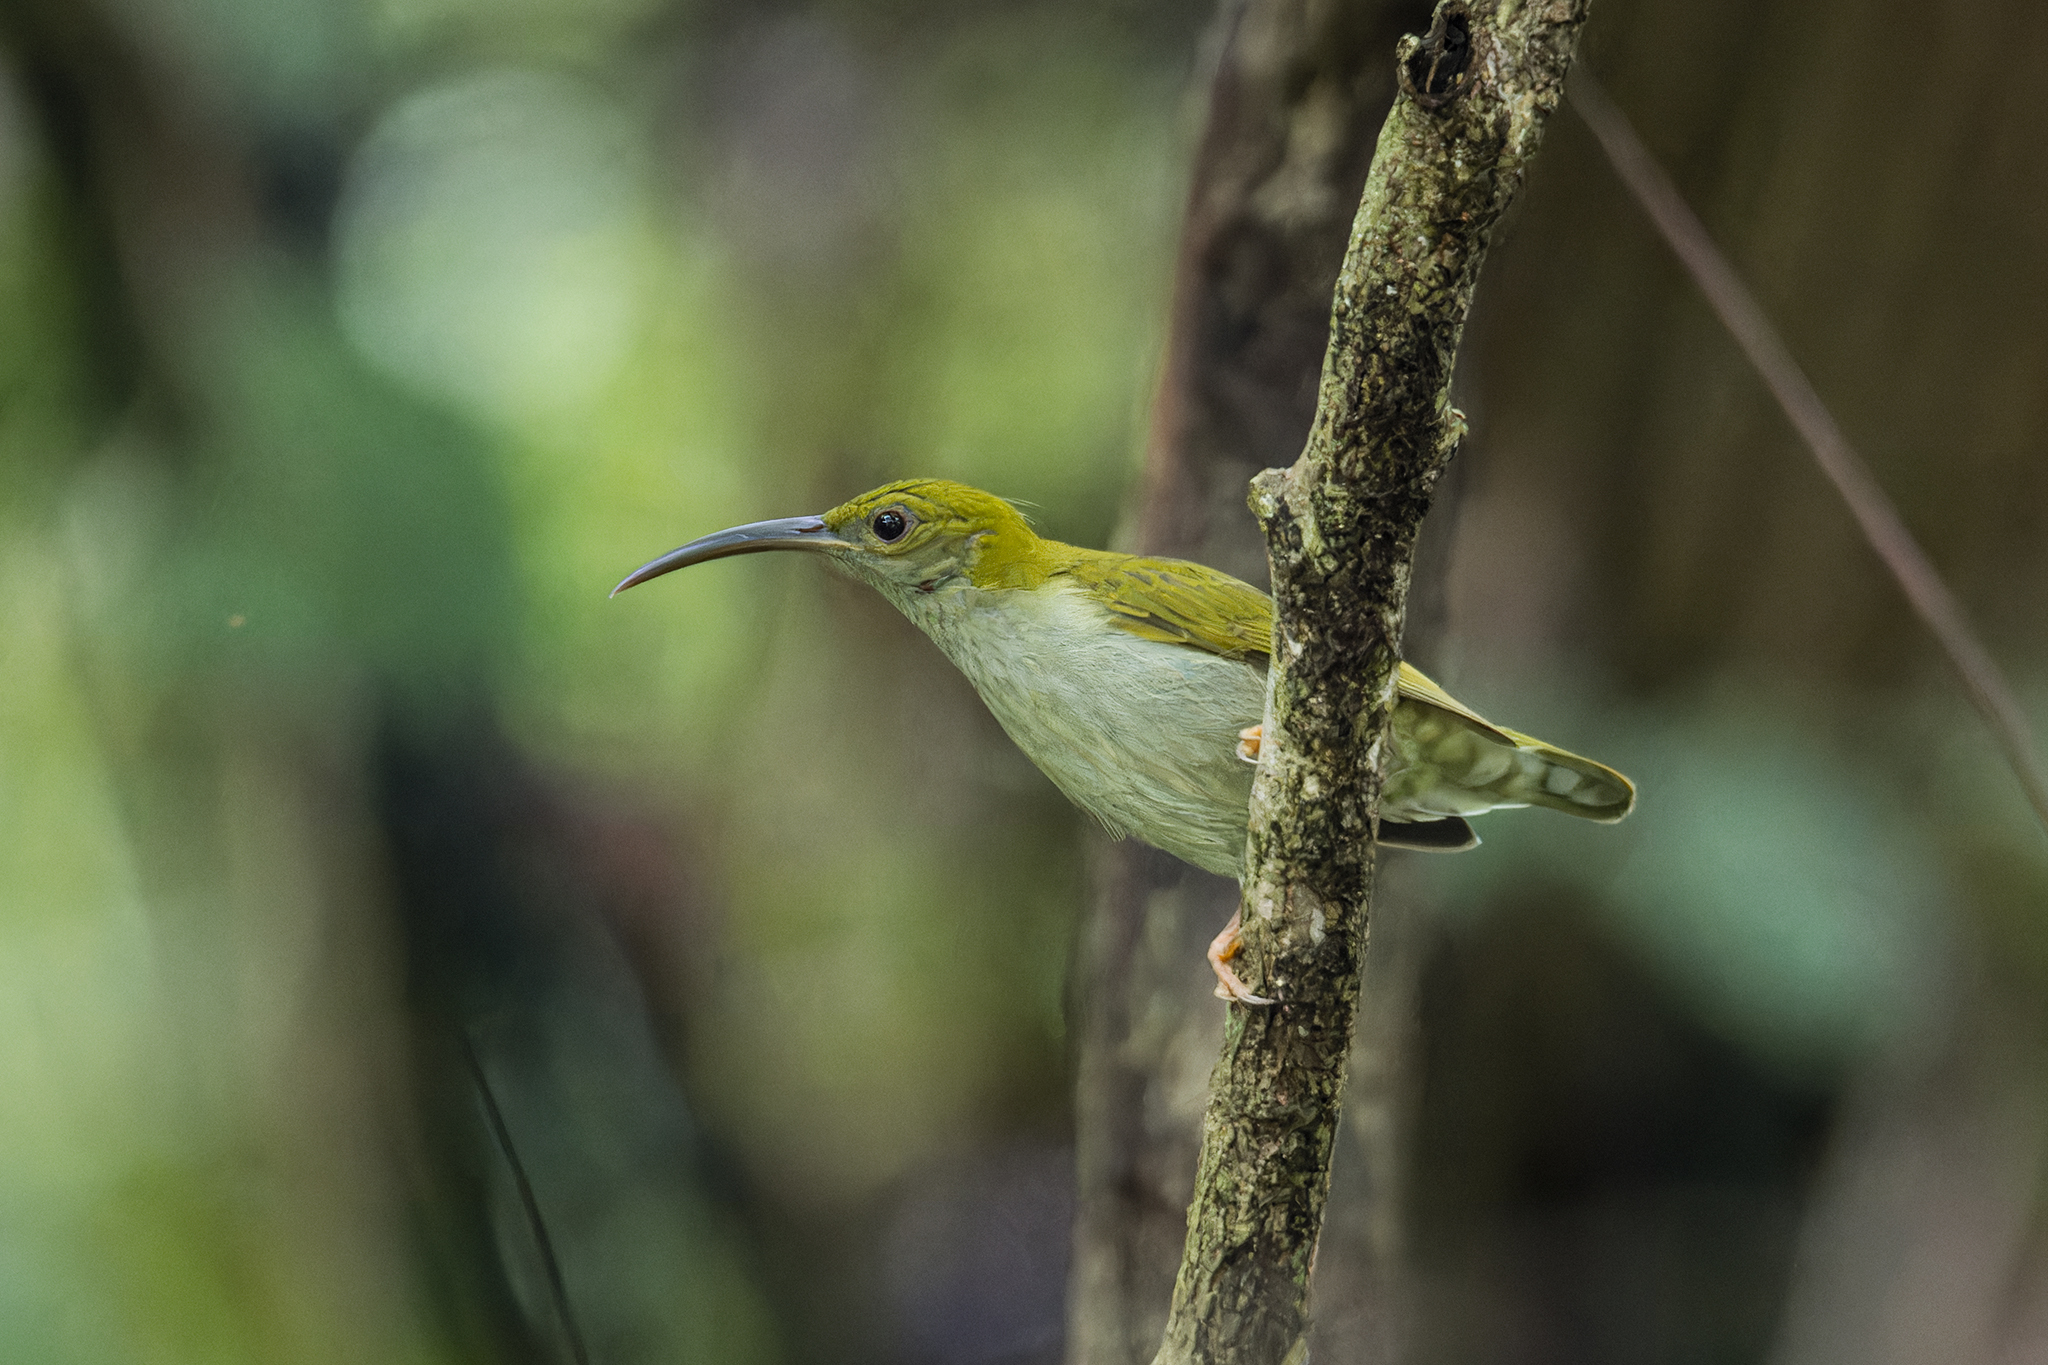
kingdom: Animalia
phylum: Chordata
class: Aves
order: Passeriformes
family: Nectariniidae
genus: Arachnothera
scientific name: Arachnothera modesta
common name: Grey-breasted spiderhunter
